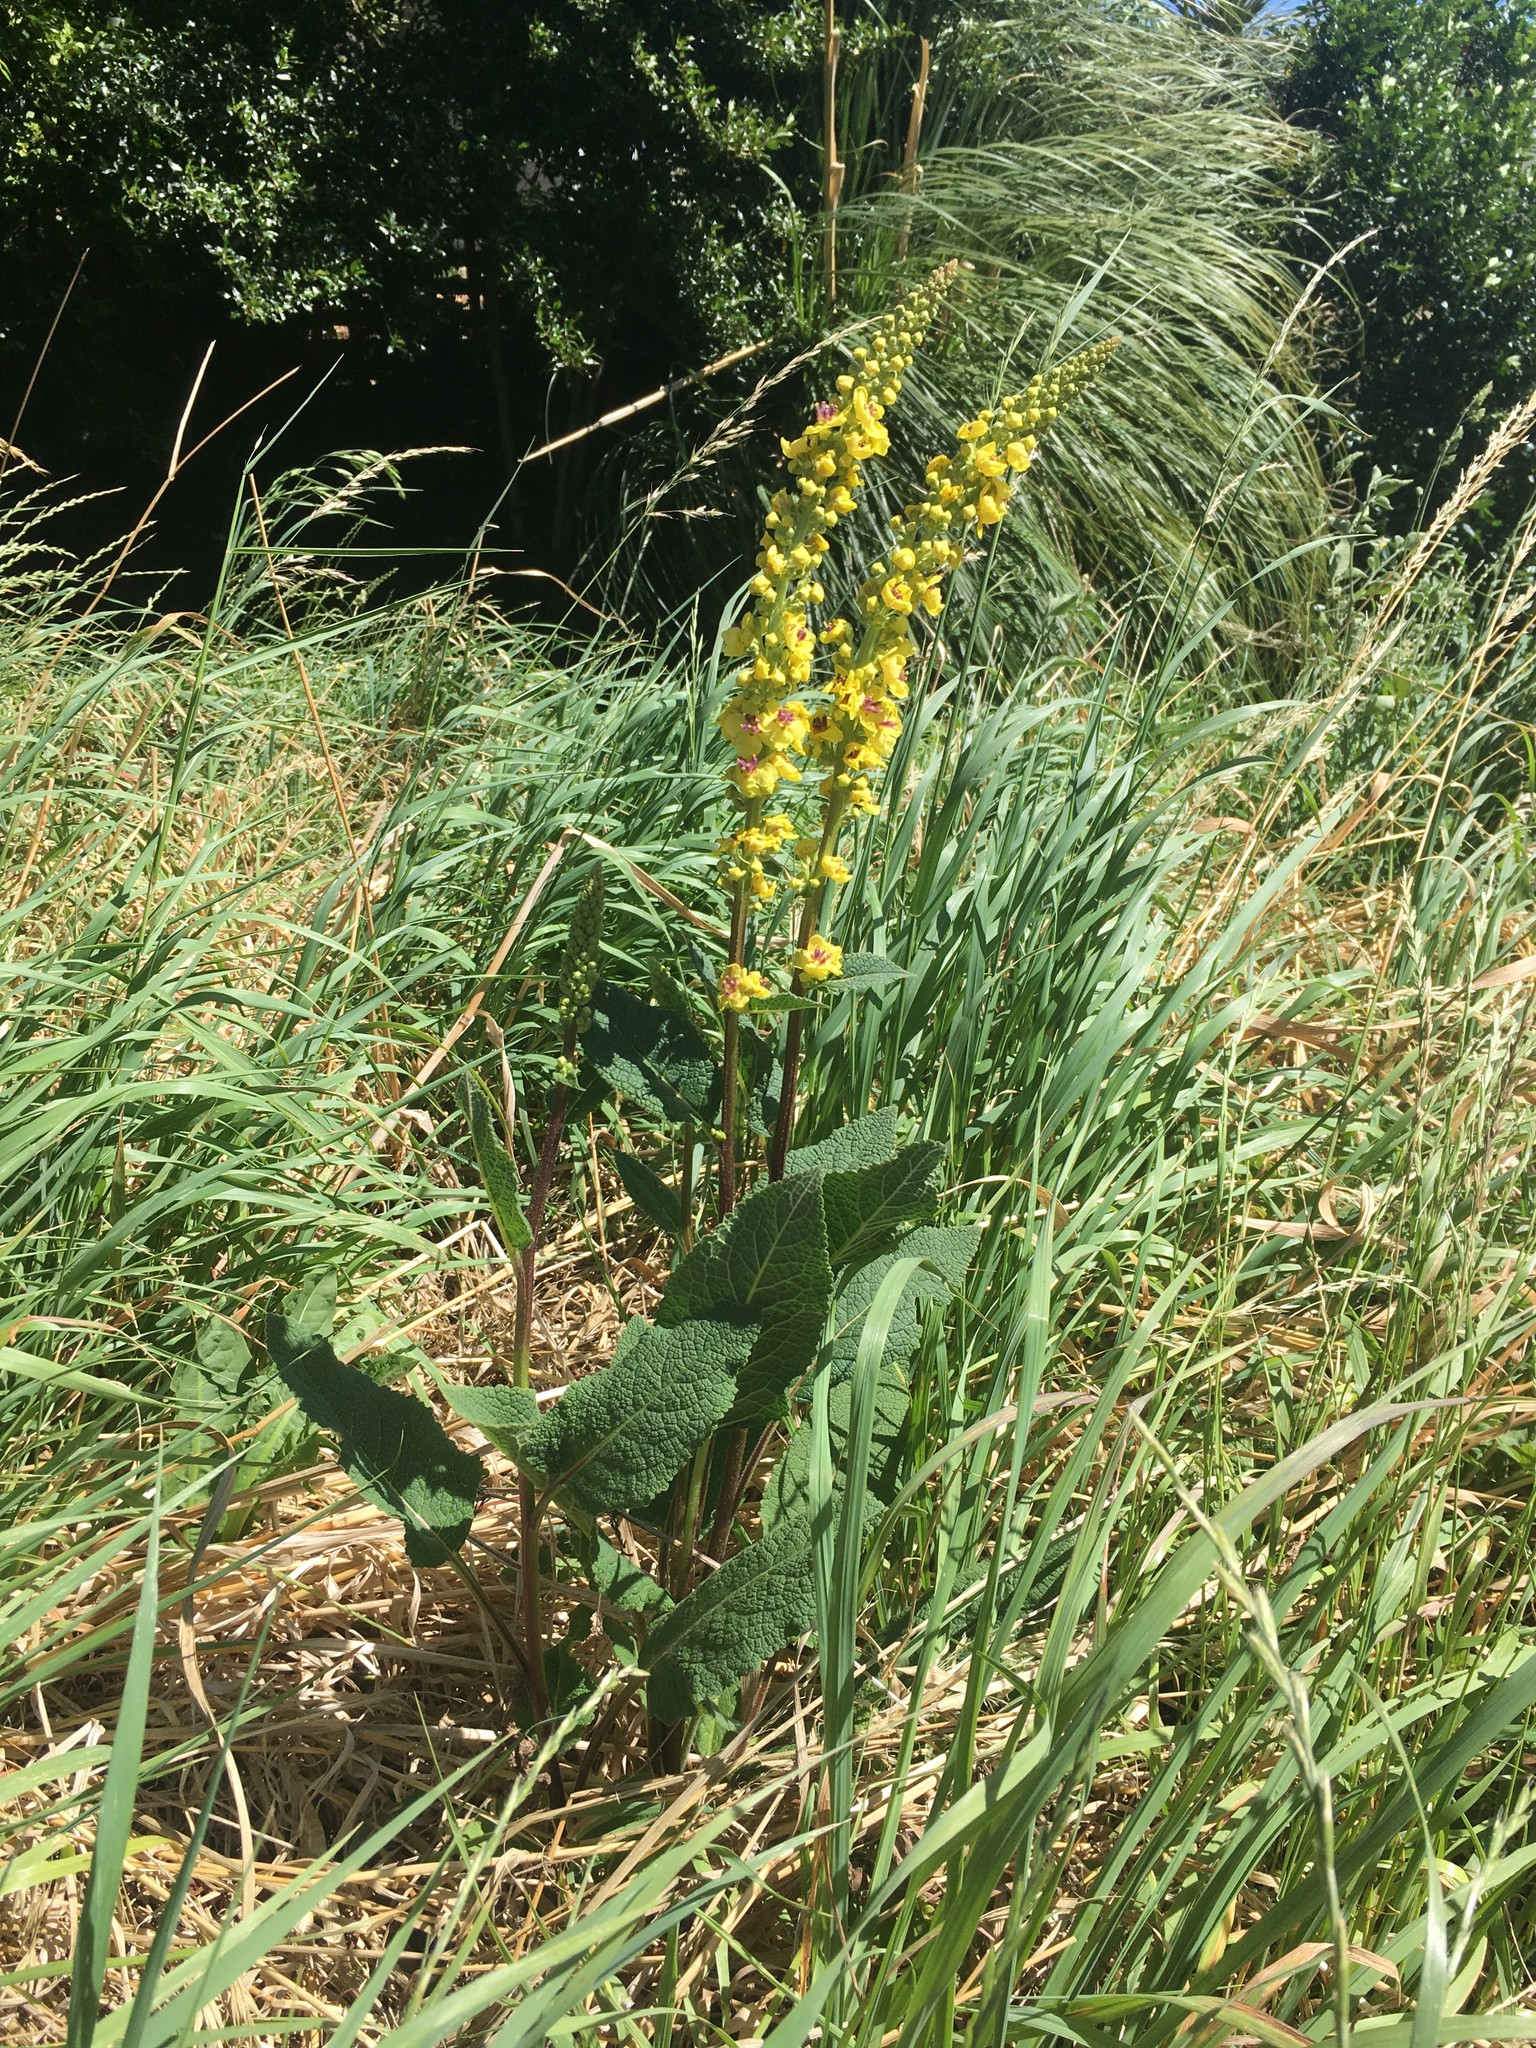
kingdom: Plantae
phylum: Tracheophyta
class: Magnoliopsida
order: Lamiales
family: Scrophulariaceae
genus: Verbascum
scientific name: Verbascum virgatum
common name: Twiggy mullein
